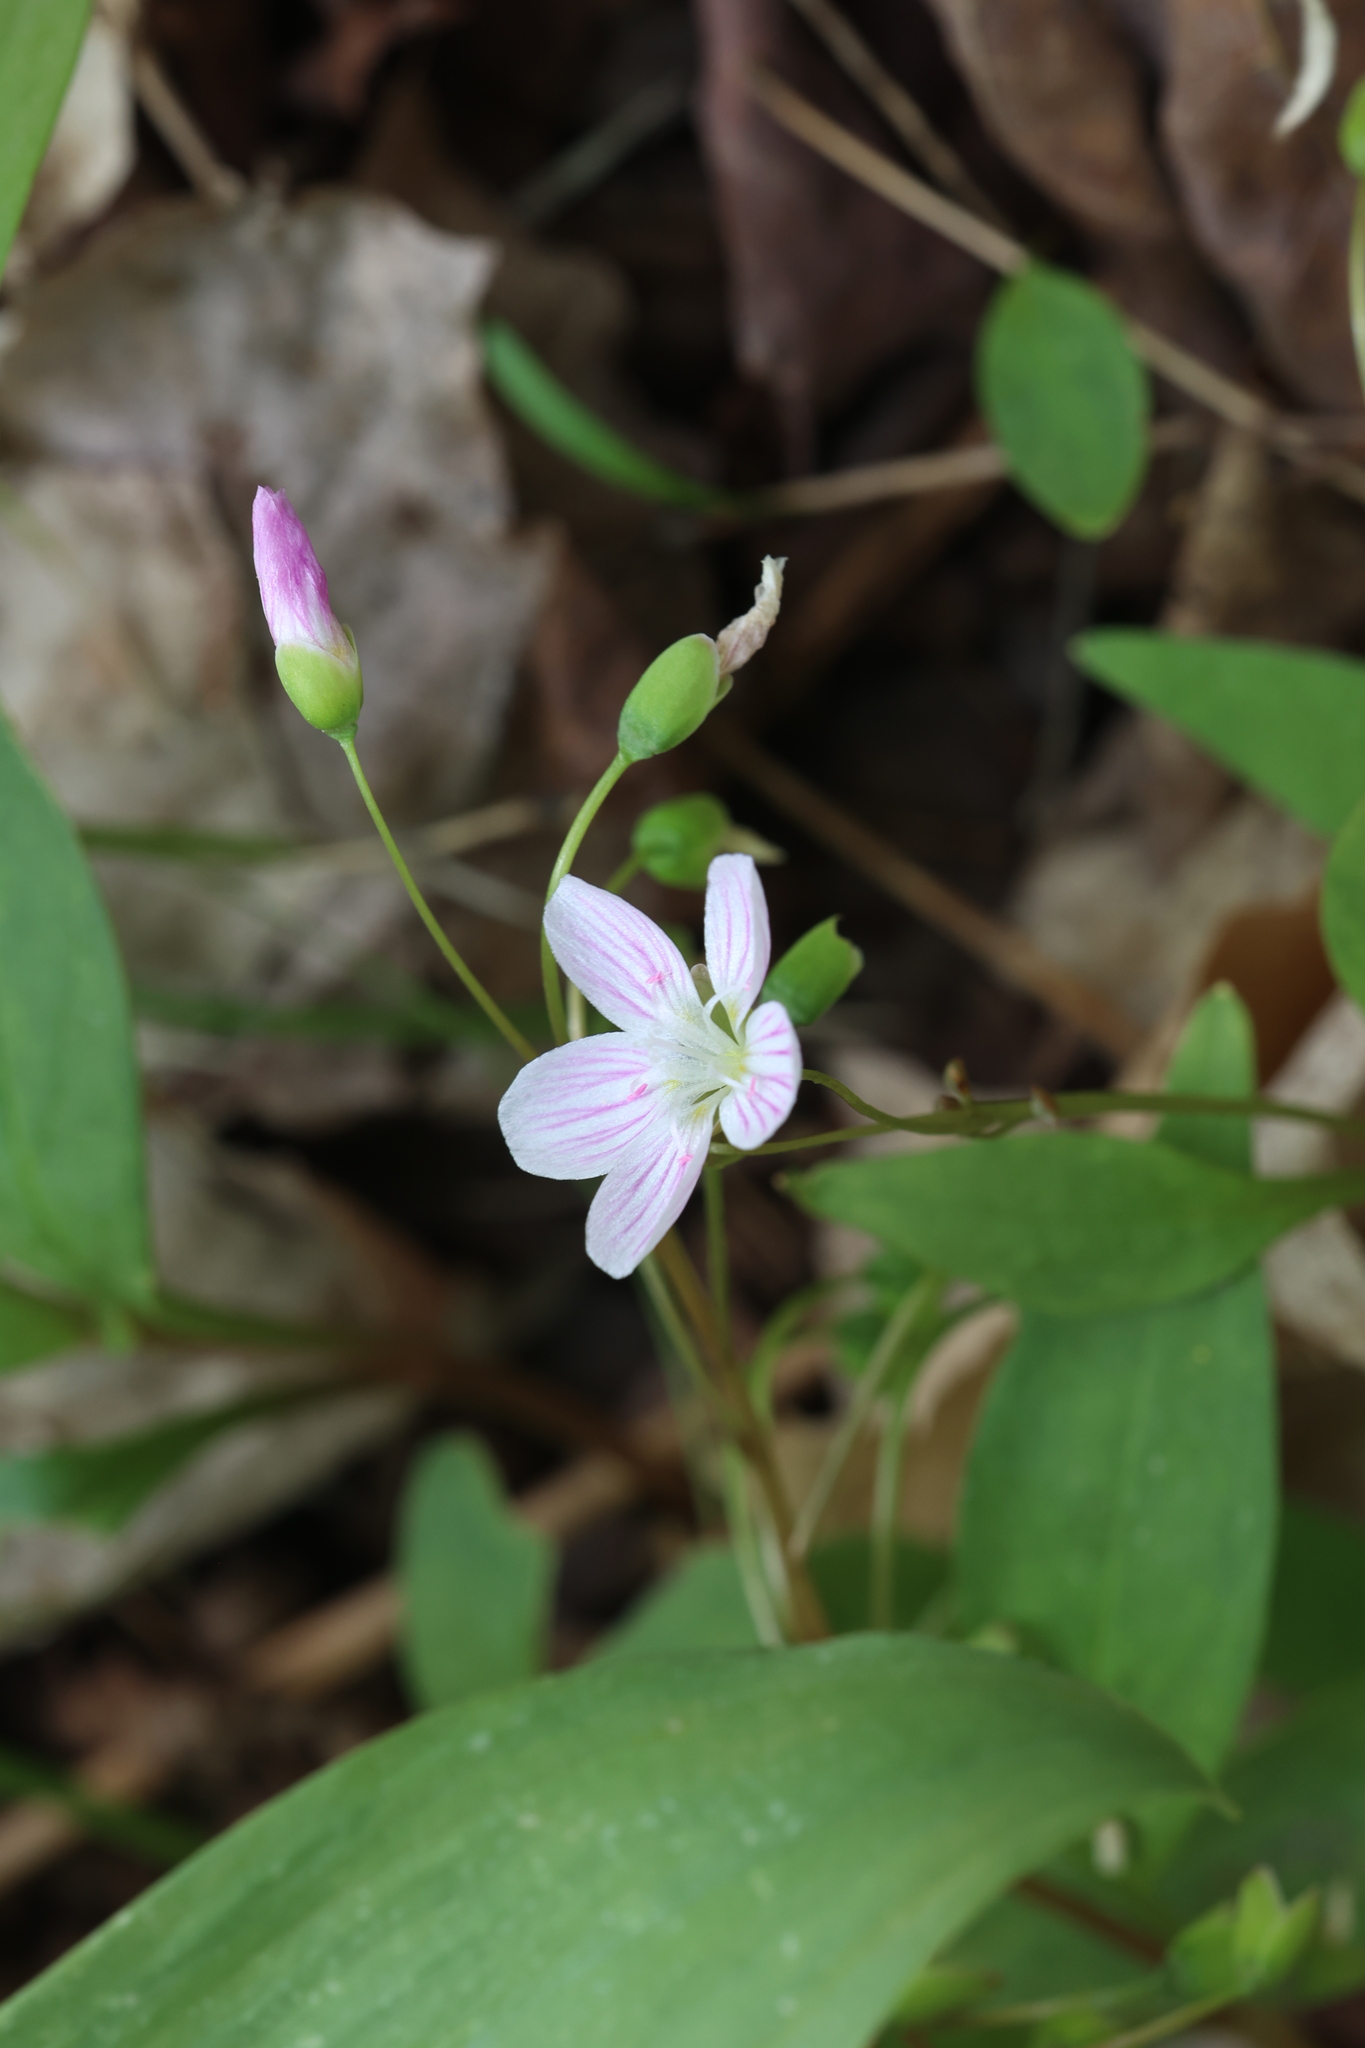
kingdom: Plantae
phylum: Tracheophyta
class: Magnoliopsida
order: Caryophyllales
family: Montiaceae
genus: Claytonia
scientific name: Claytonia caroliniana
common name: Carolina spring beauty
